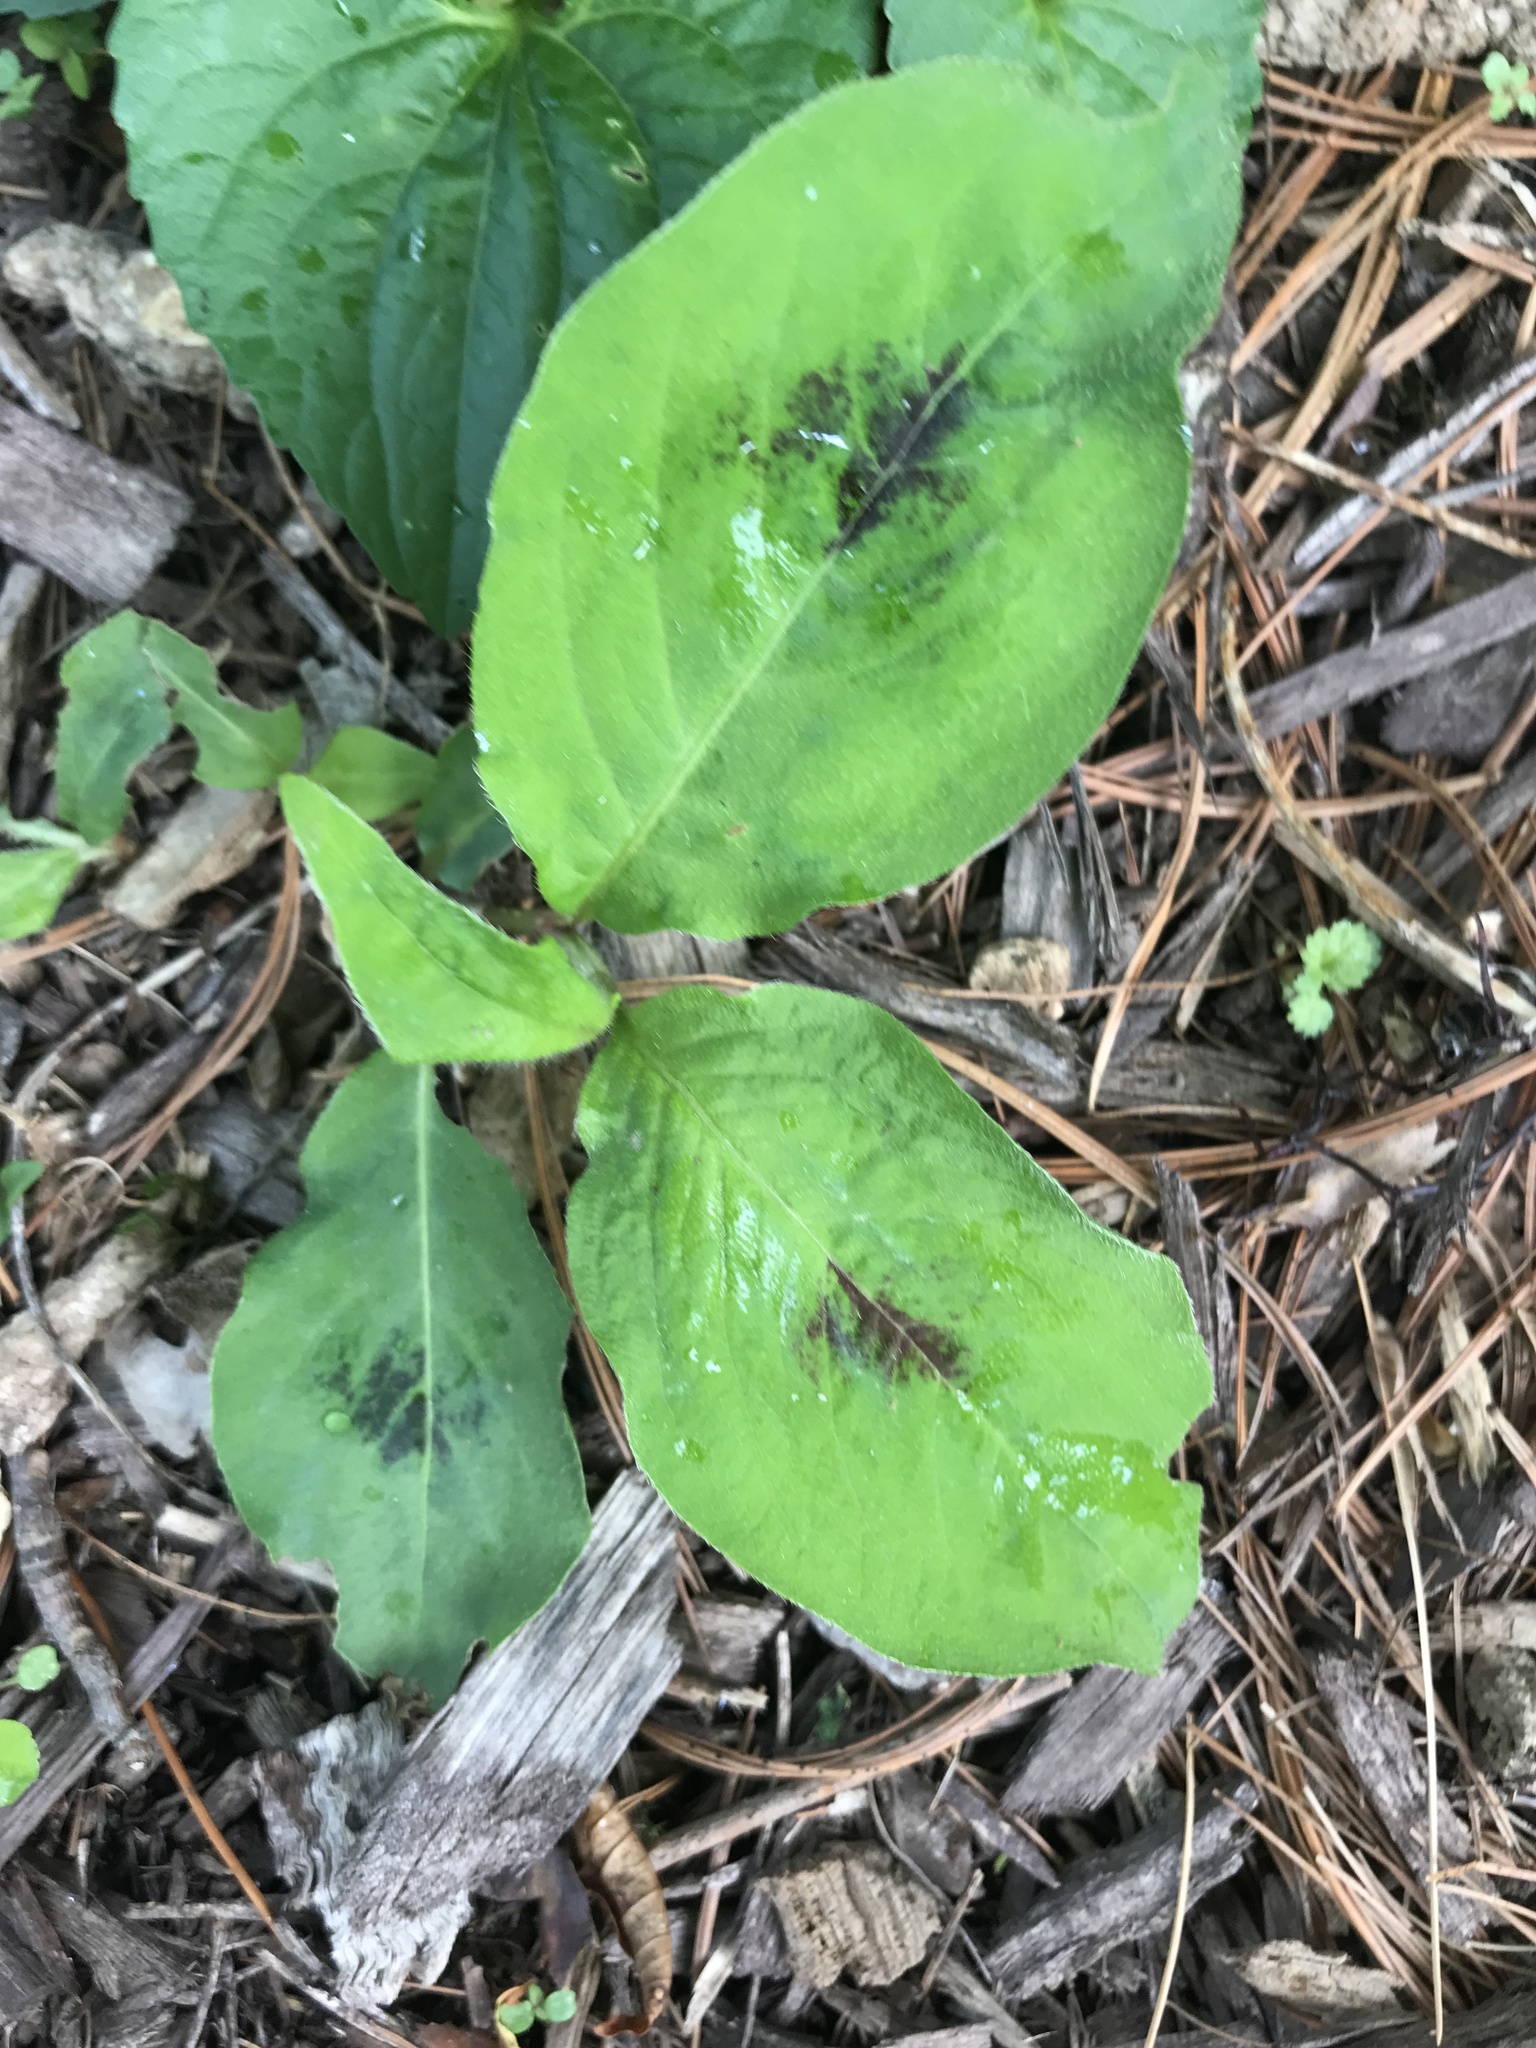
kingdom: Plantae
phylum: Tracheophyta
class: Magnoliopsida
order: Caryophyllales
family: Polygonaceae
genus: Persicaria
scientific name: Persicaria virginiana
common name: Jumpseed
